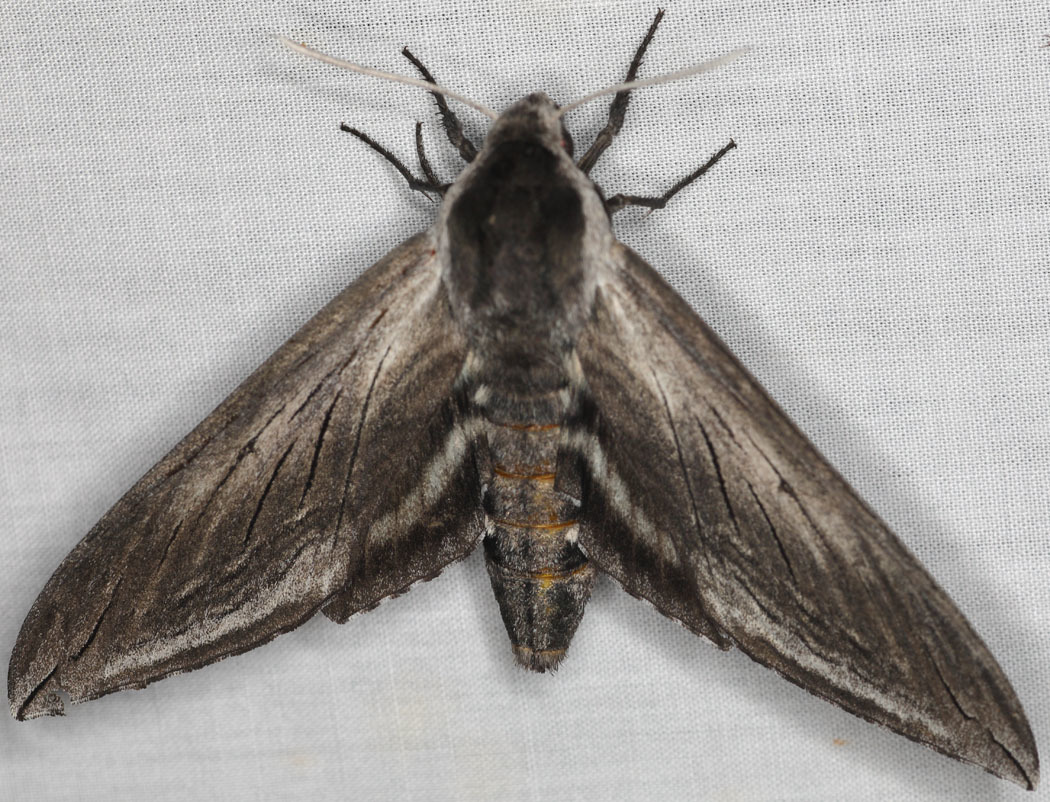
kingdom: Animalia
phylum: Arthropoda
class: Insecta
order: Lepidoptera
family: Sphingidae
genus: Sphinx
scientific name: Sphinx perelegans
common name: Elegant sphinx
